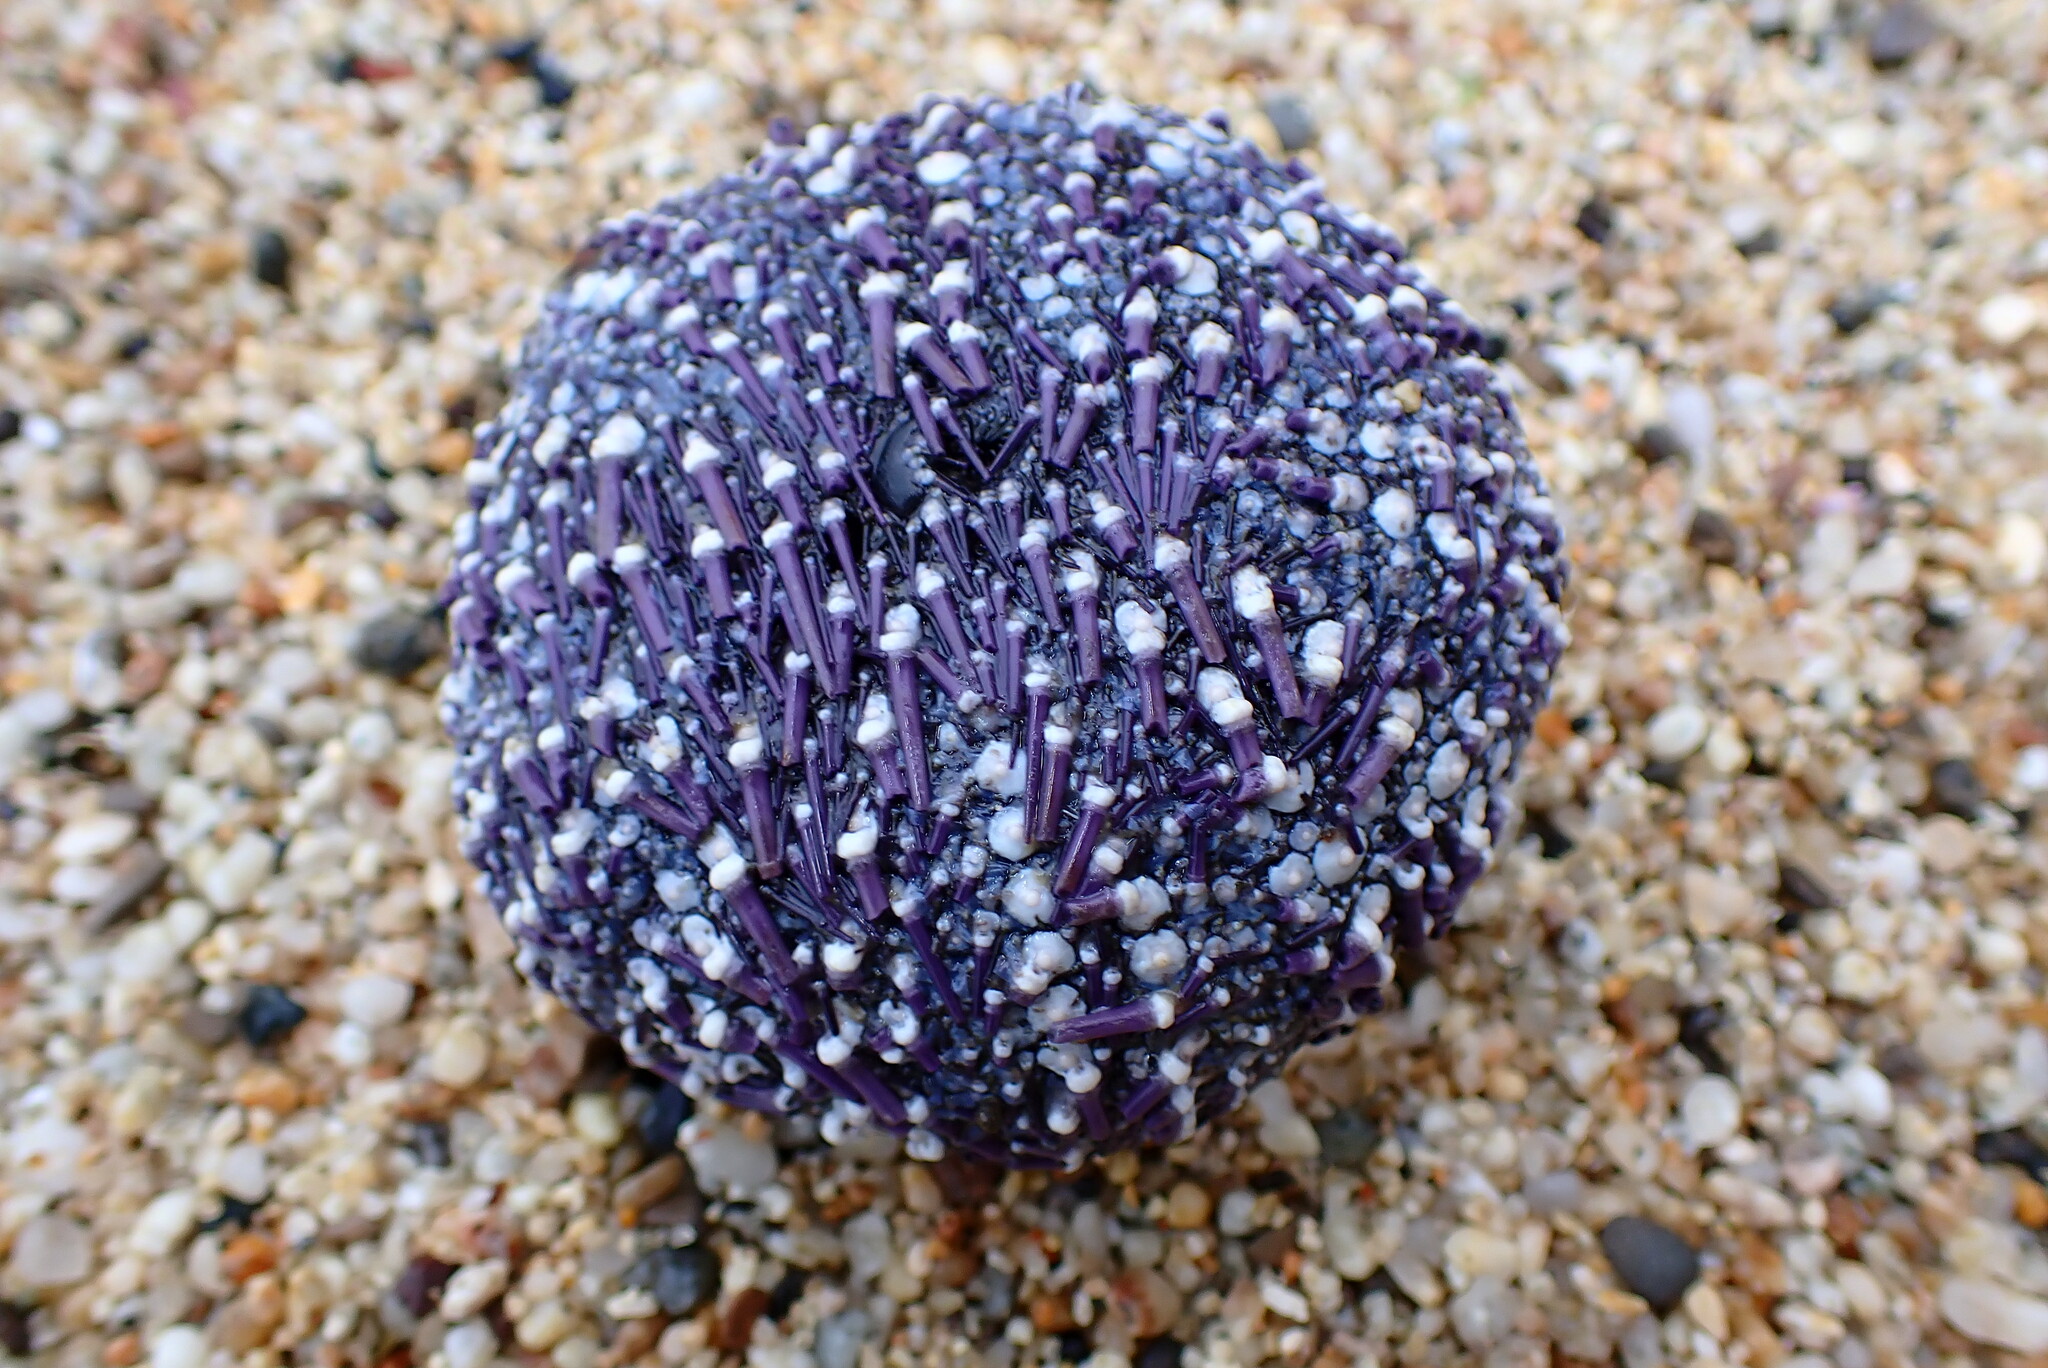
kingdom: Animalia
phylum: Echinodermata
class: Echinoidea
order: Camarodonta
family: Strongylocentrotidae
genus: Strongylocentrotus
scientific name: Strongylocentrotus purpuratus
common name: Purple sea urchin
